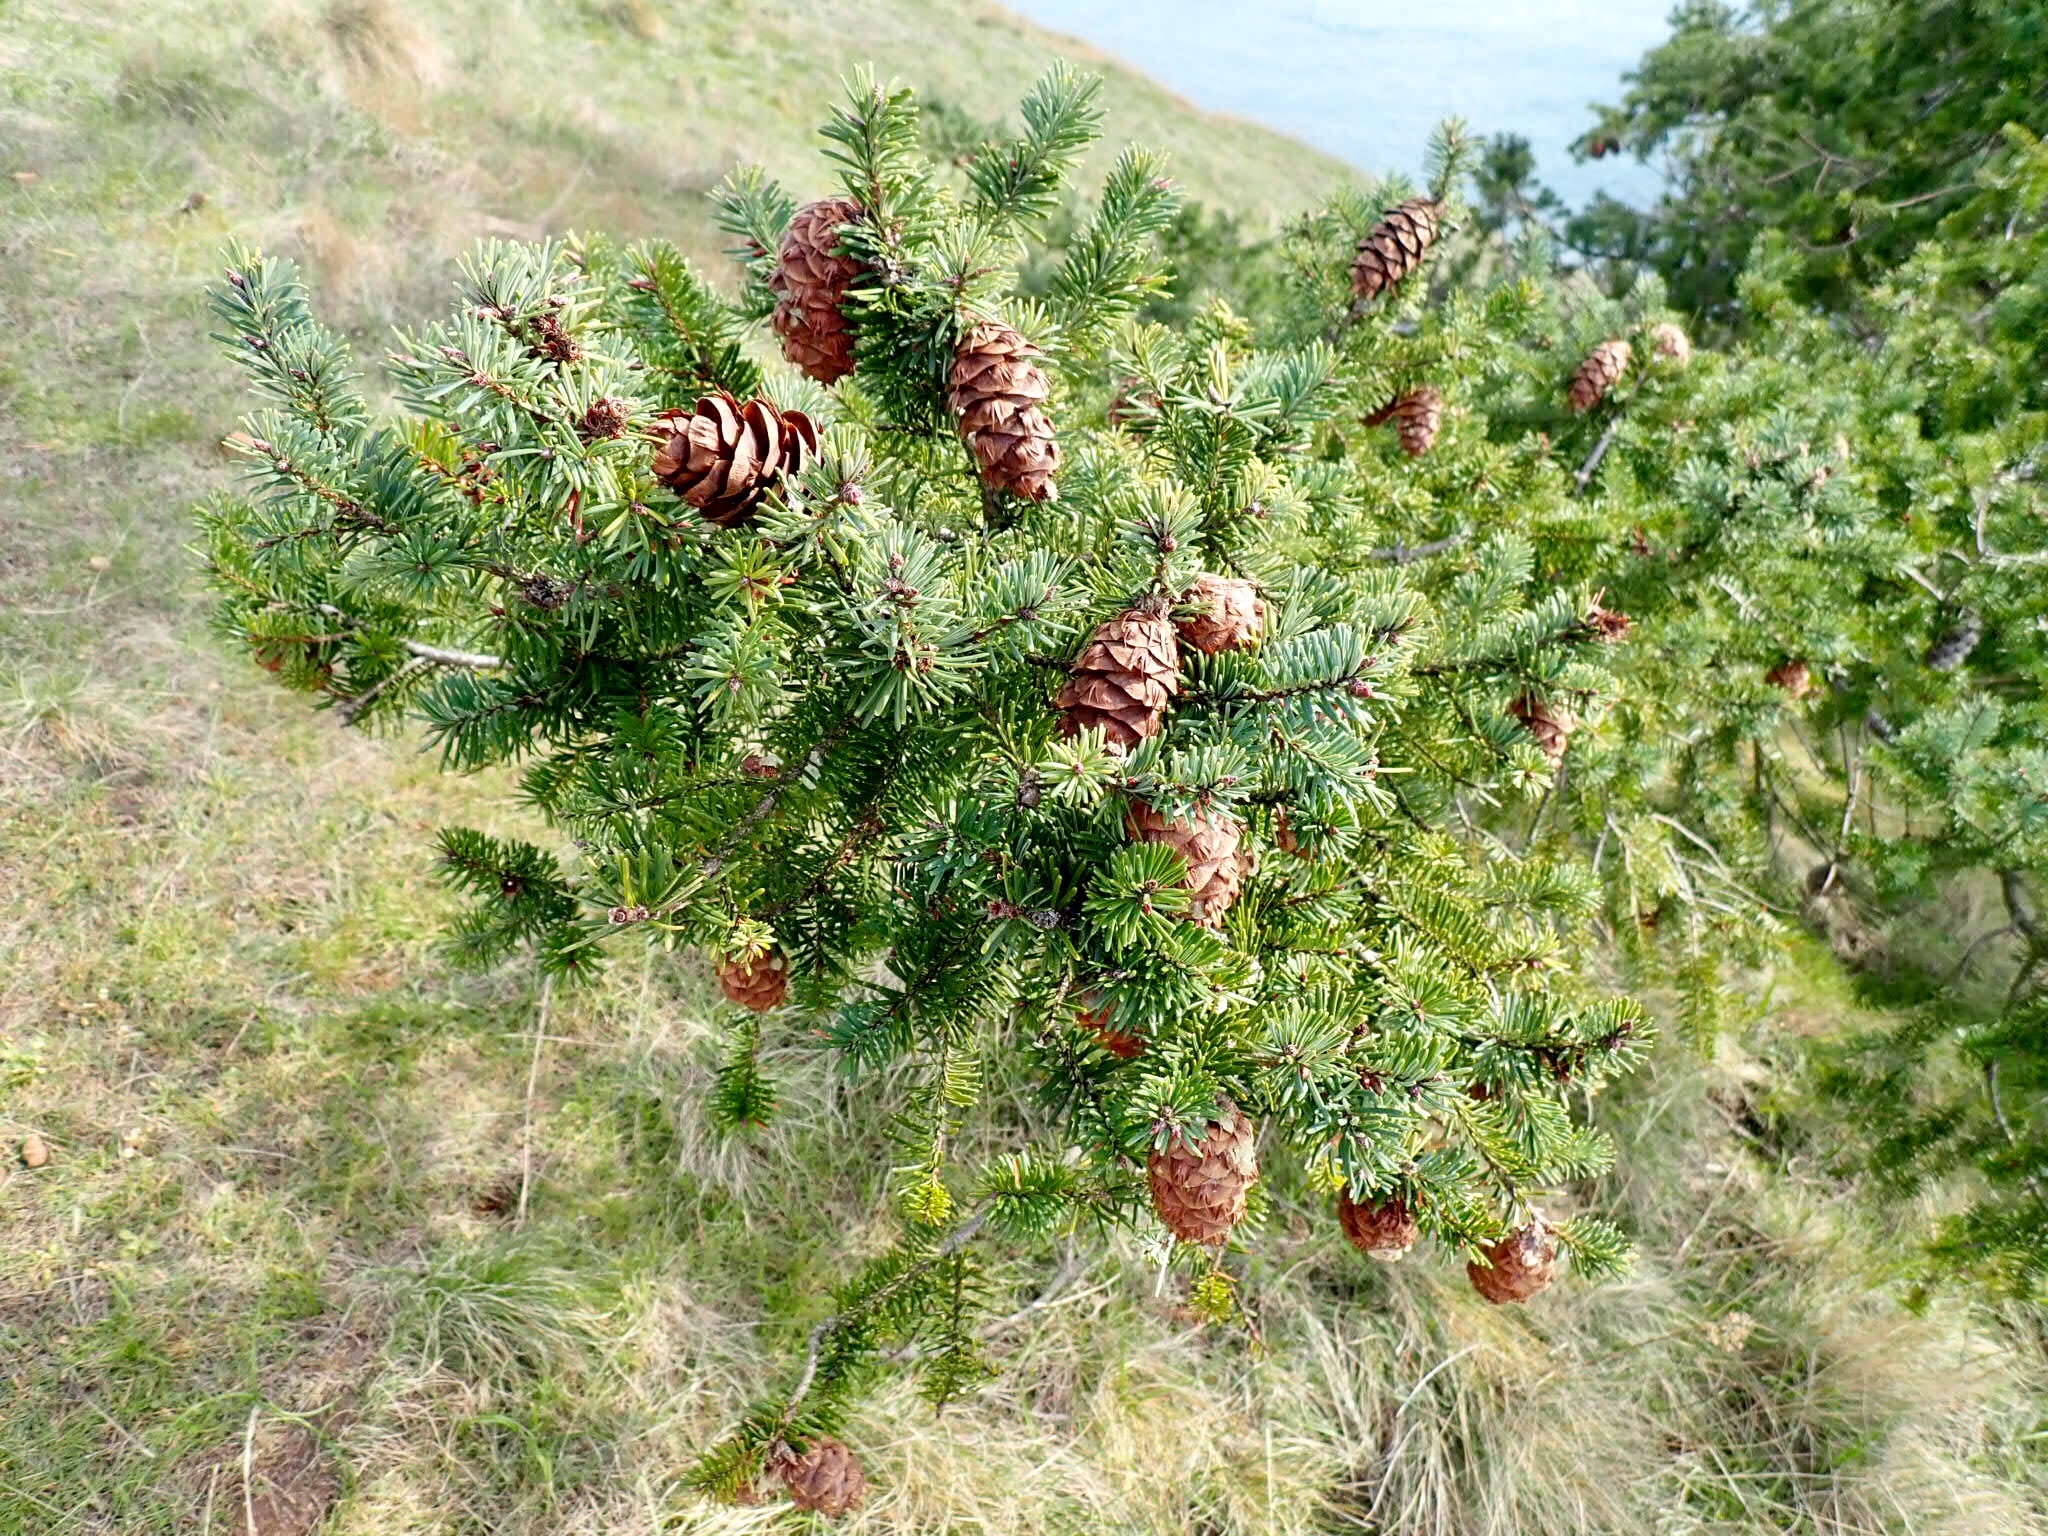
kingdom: Plantae
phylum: Tracheophyta
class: Pinopsida
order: Pinales
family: Pinaceae
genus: Pseudotsuga
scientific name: Pseudotsuga menziesii
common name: Douglas fir
